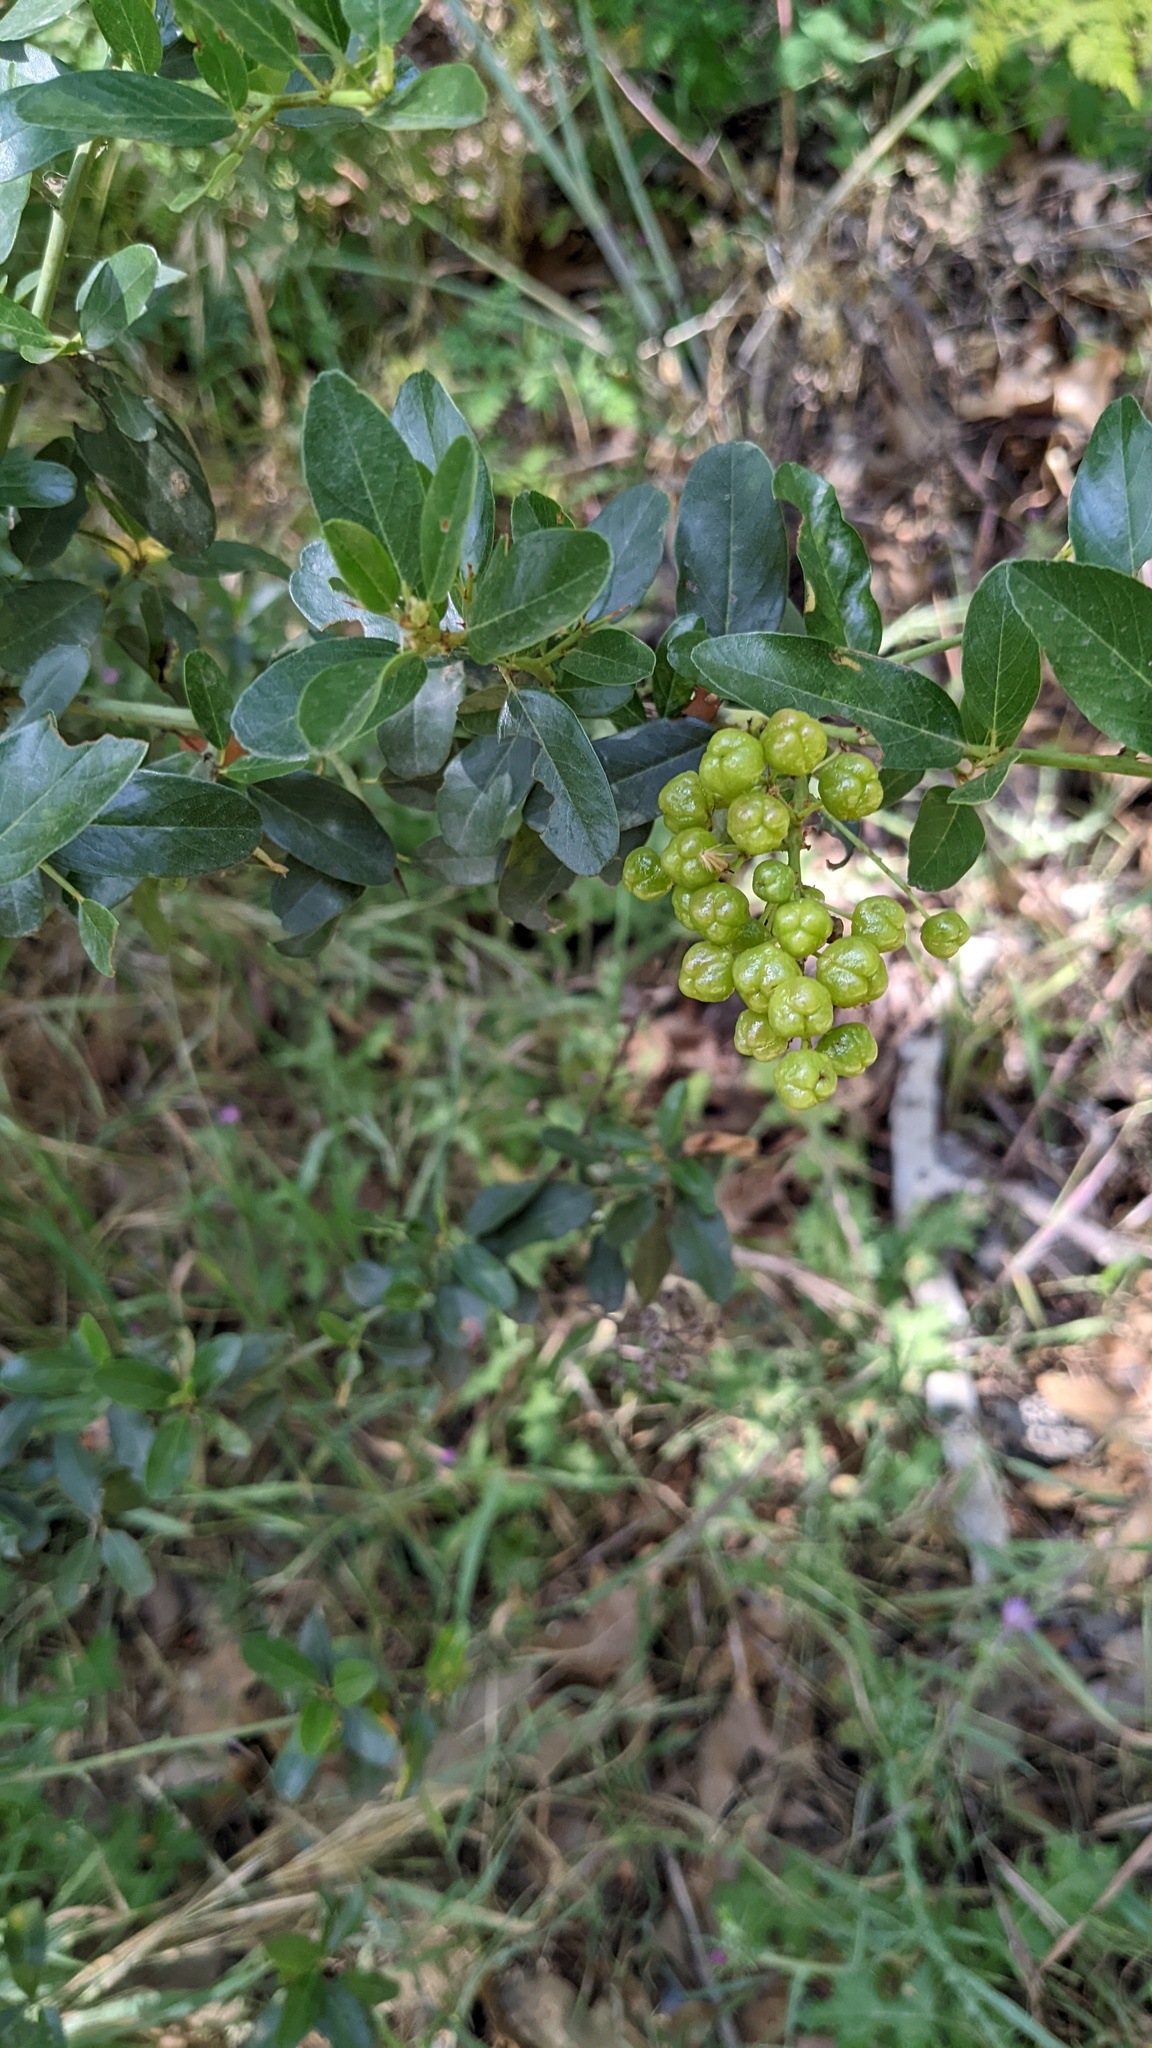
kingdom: Plantae
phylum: Tracheophyta
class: Magnoliopsida
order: Rosales
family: Rhamnaceae
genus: Ceanothus
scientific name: Ceanothus spinosus
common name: Greenbark whitethorn
